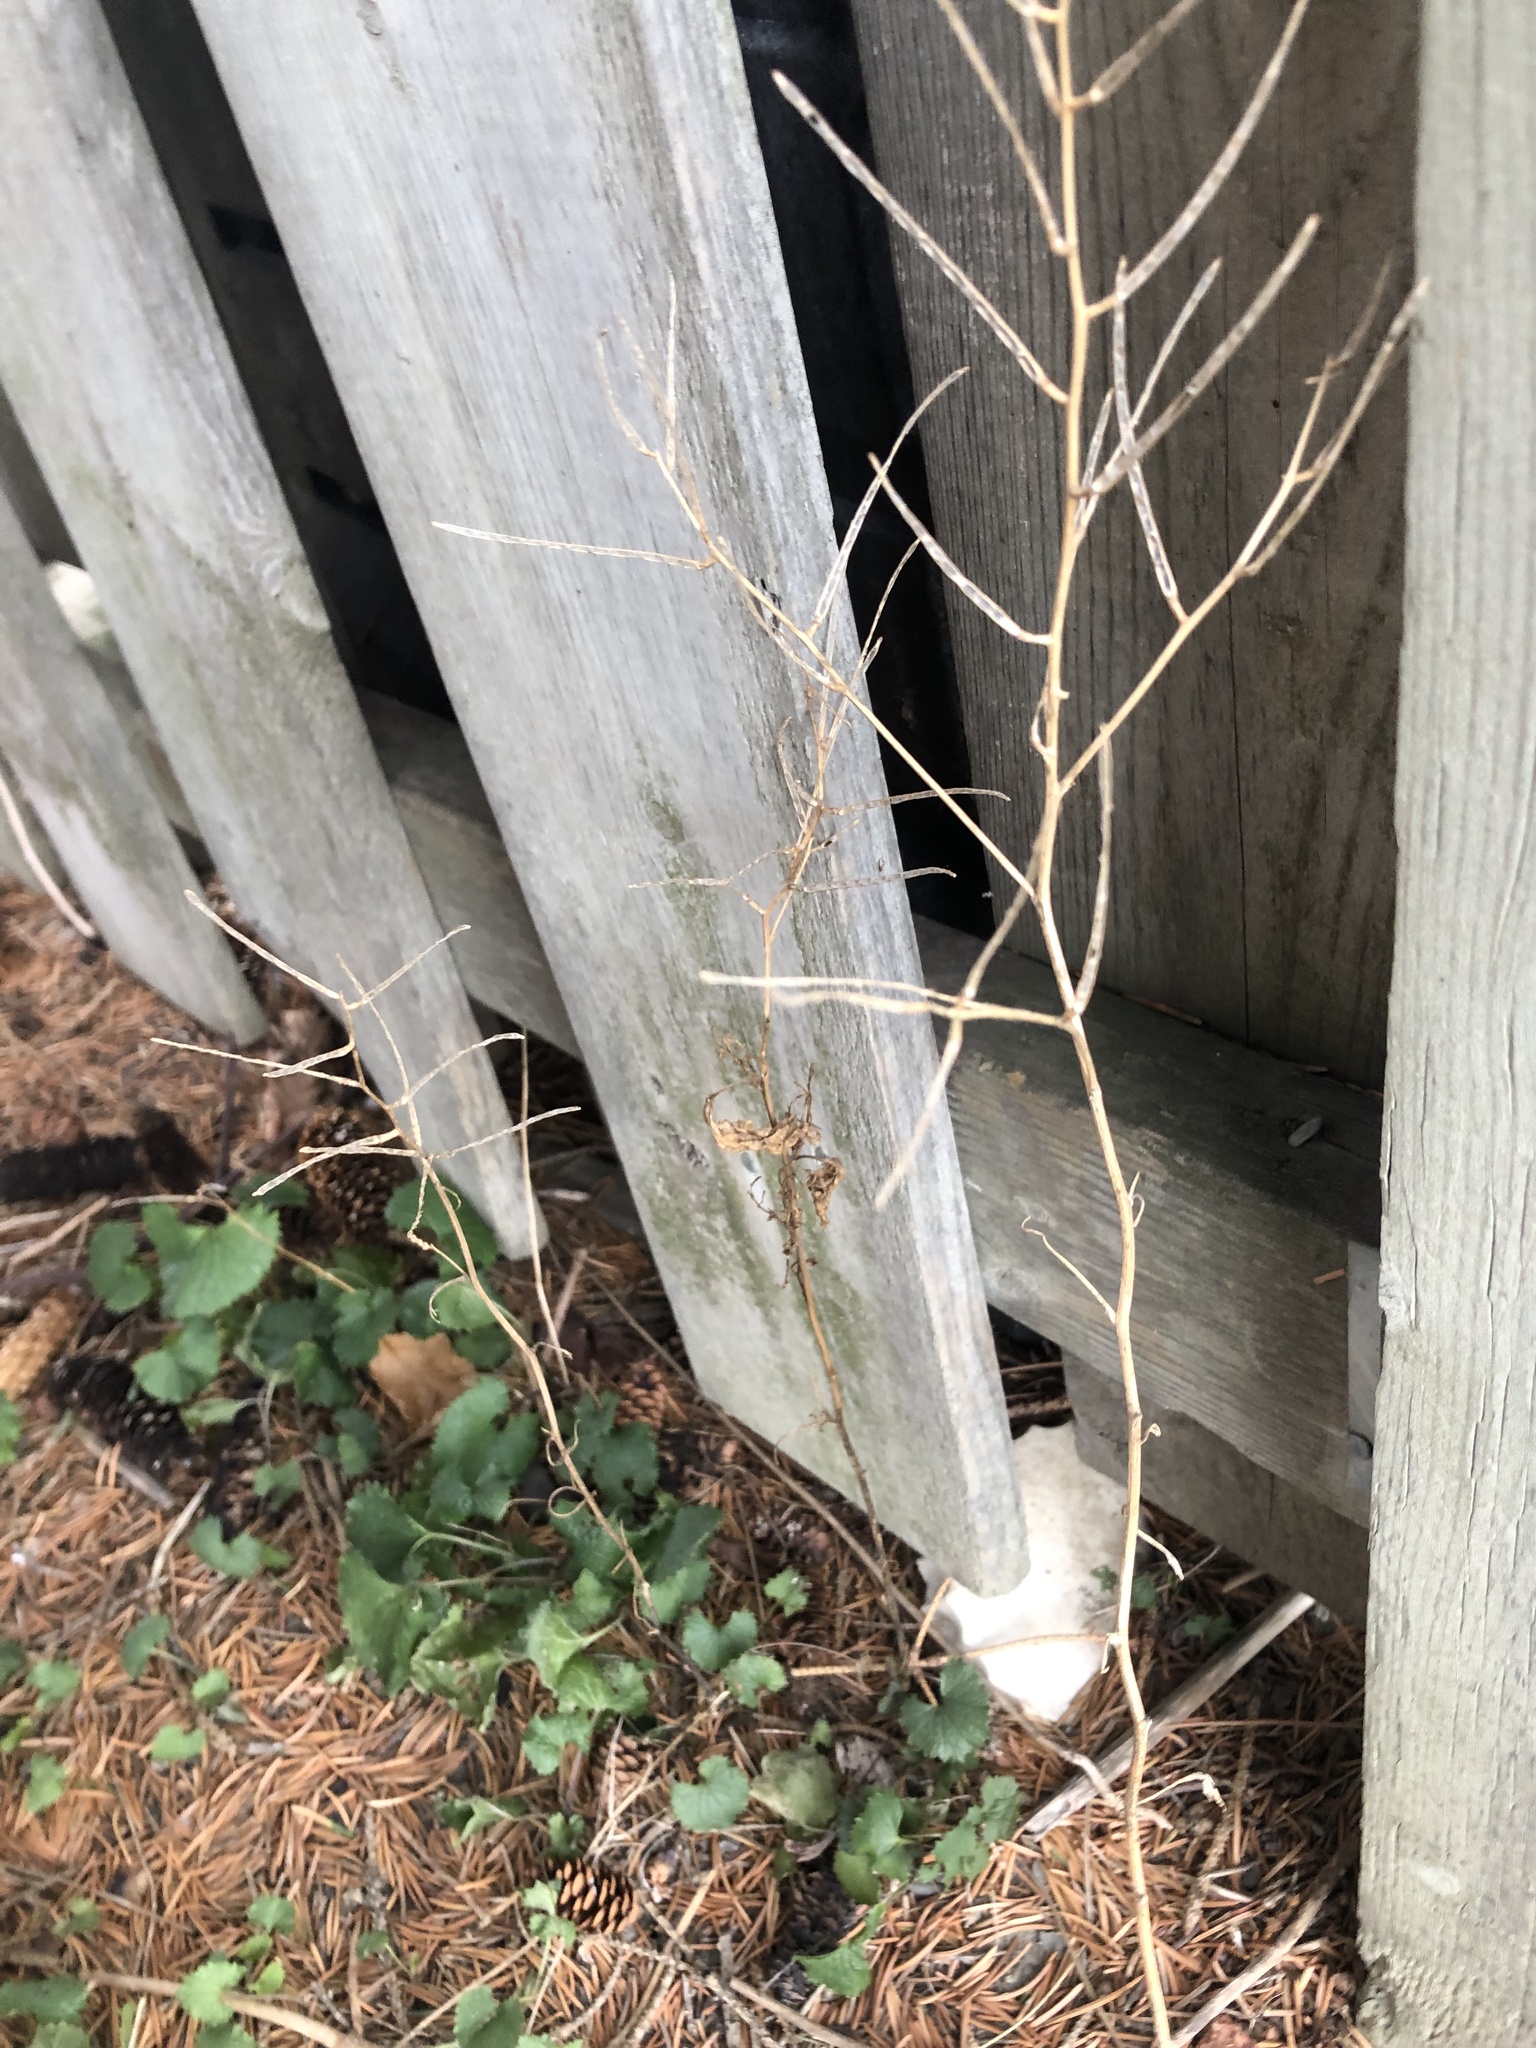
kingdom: Plantae
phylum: Tracheophyta
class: Magnoliopsida
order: Brassicales
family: Brassicaceae
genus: Alliaria
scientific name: Alliaria petiolata
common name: Garlic mustard
